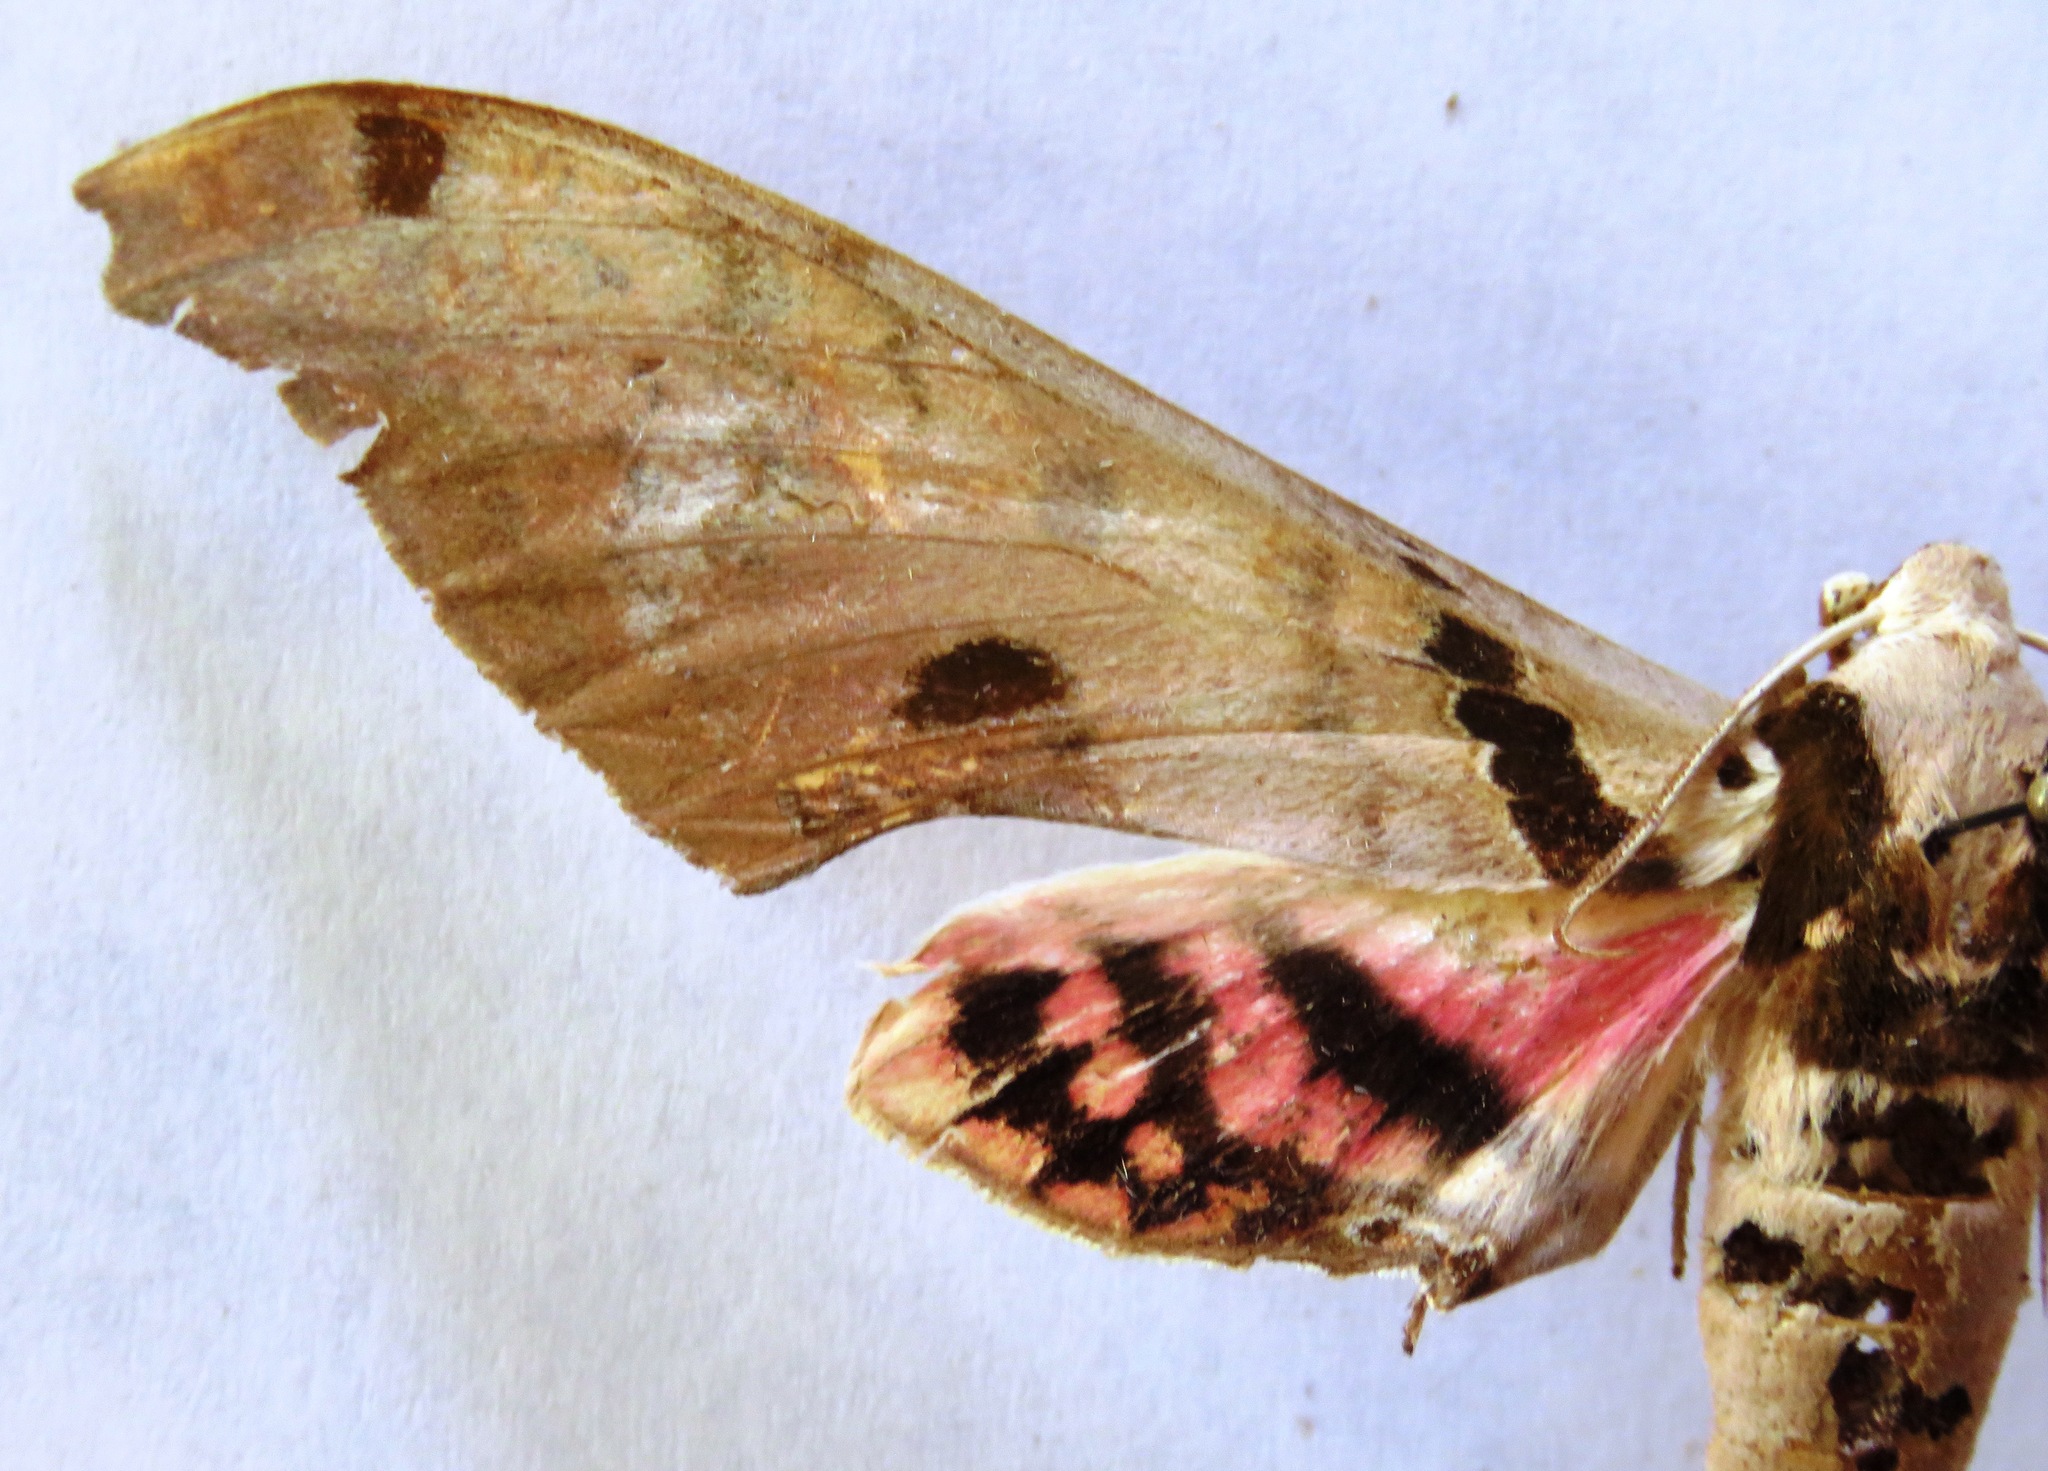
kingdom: Animalia
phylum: Arthropoda
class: Insecta
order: Lepidoptera
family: Sphingidae
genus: Adhemarius
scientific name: Adhemarius gannascus
